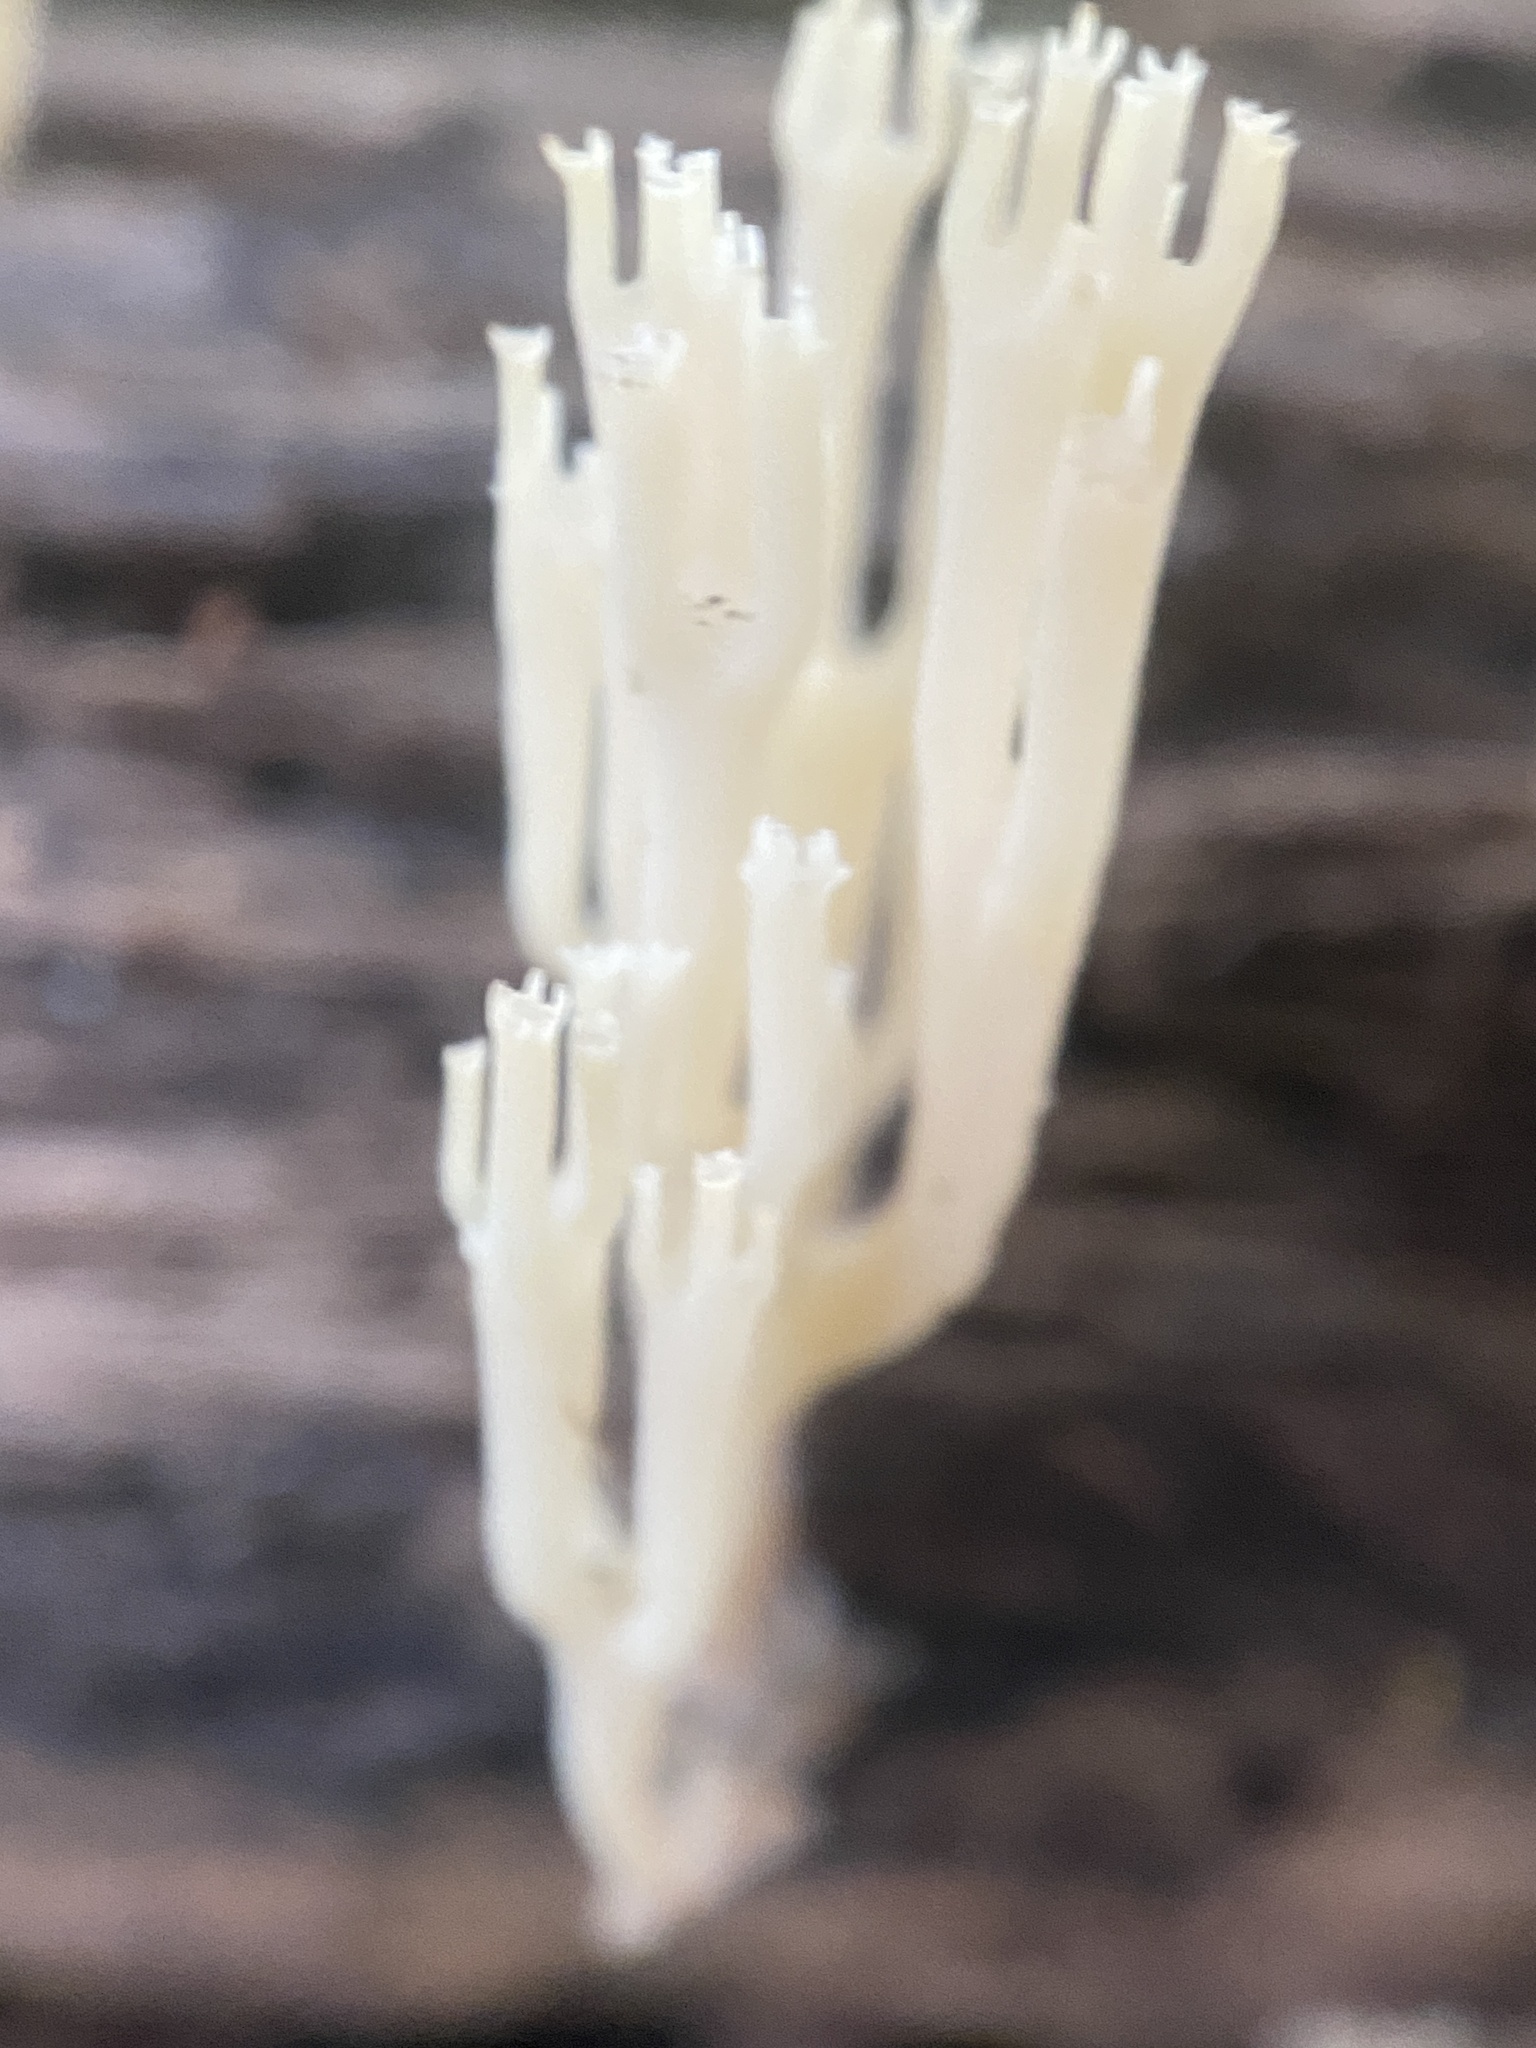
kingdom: Fungi
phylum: Basidiomycota
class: Agaricomycetes
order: Russulales
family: Auriscalpiaceae
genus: Artomyces
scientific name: Artomyces pyxidatus
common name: Crown-tipped coral fungus
